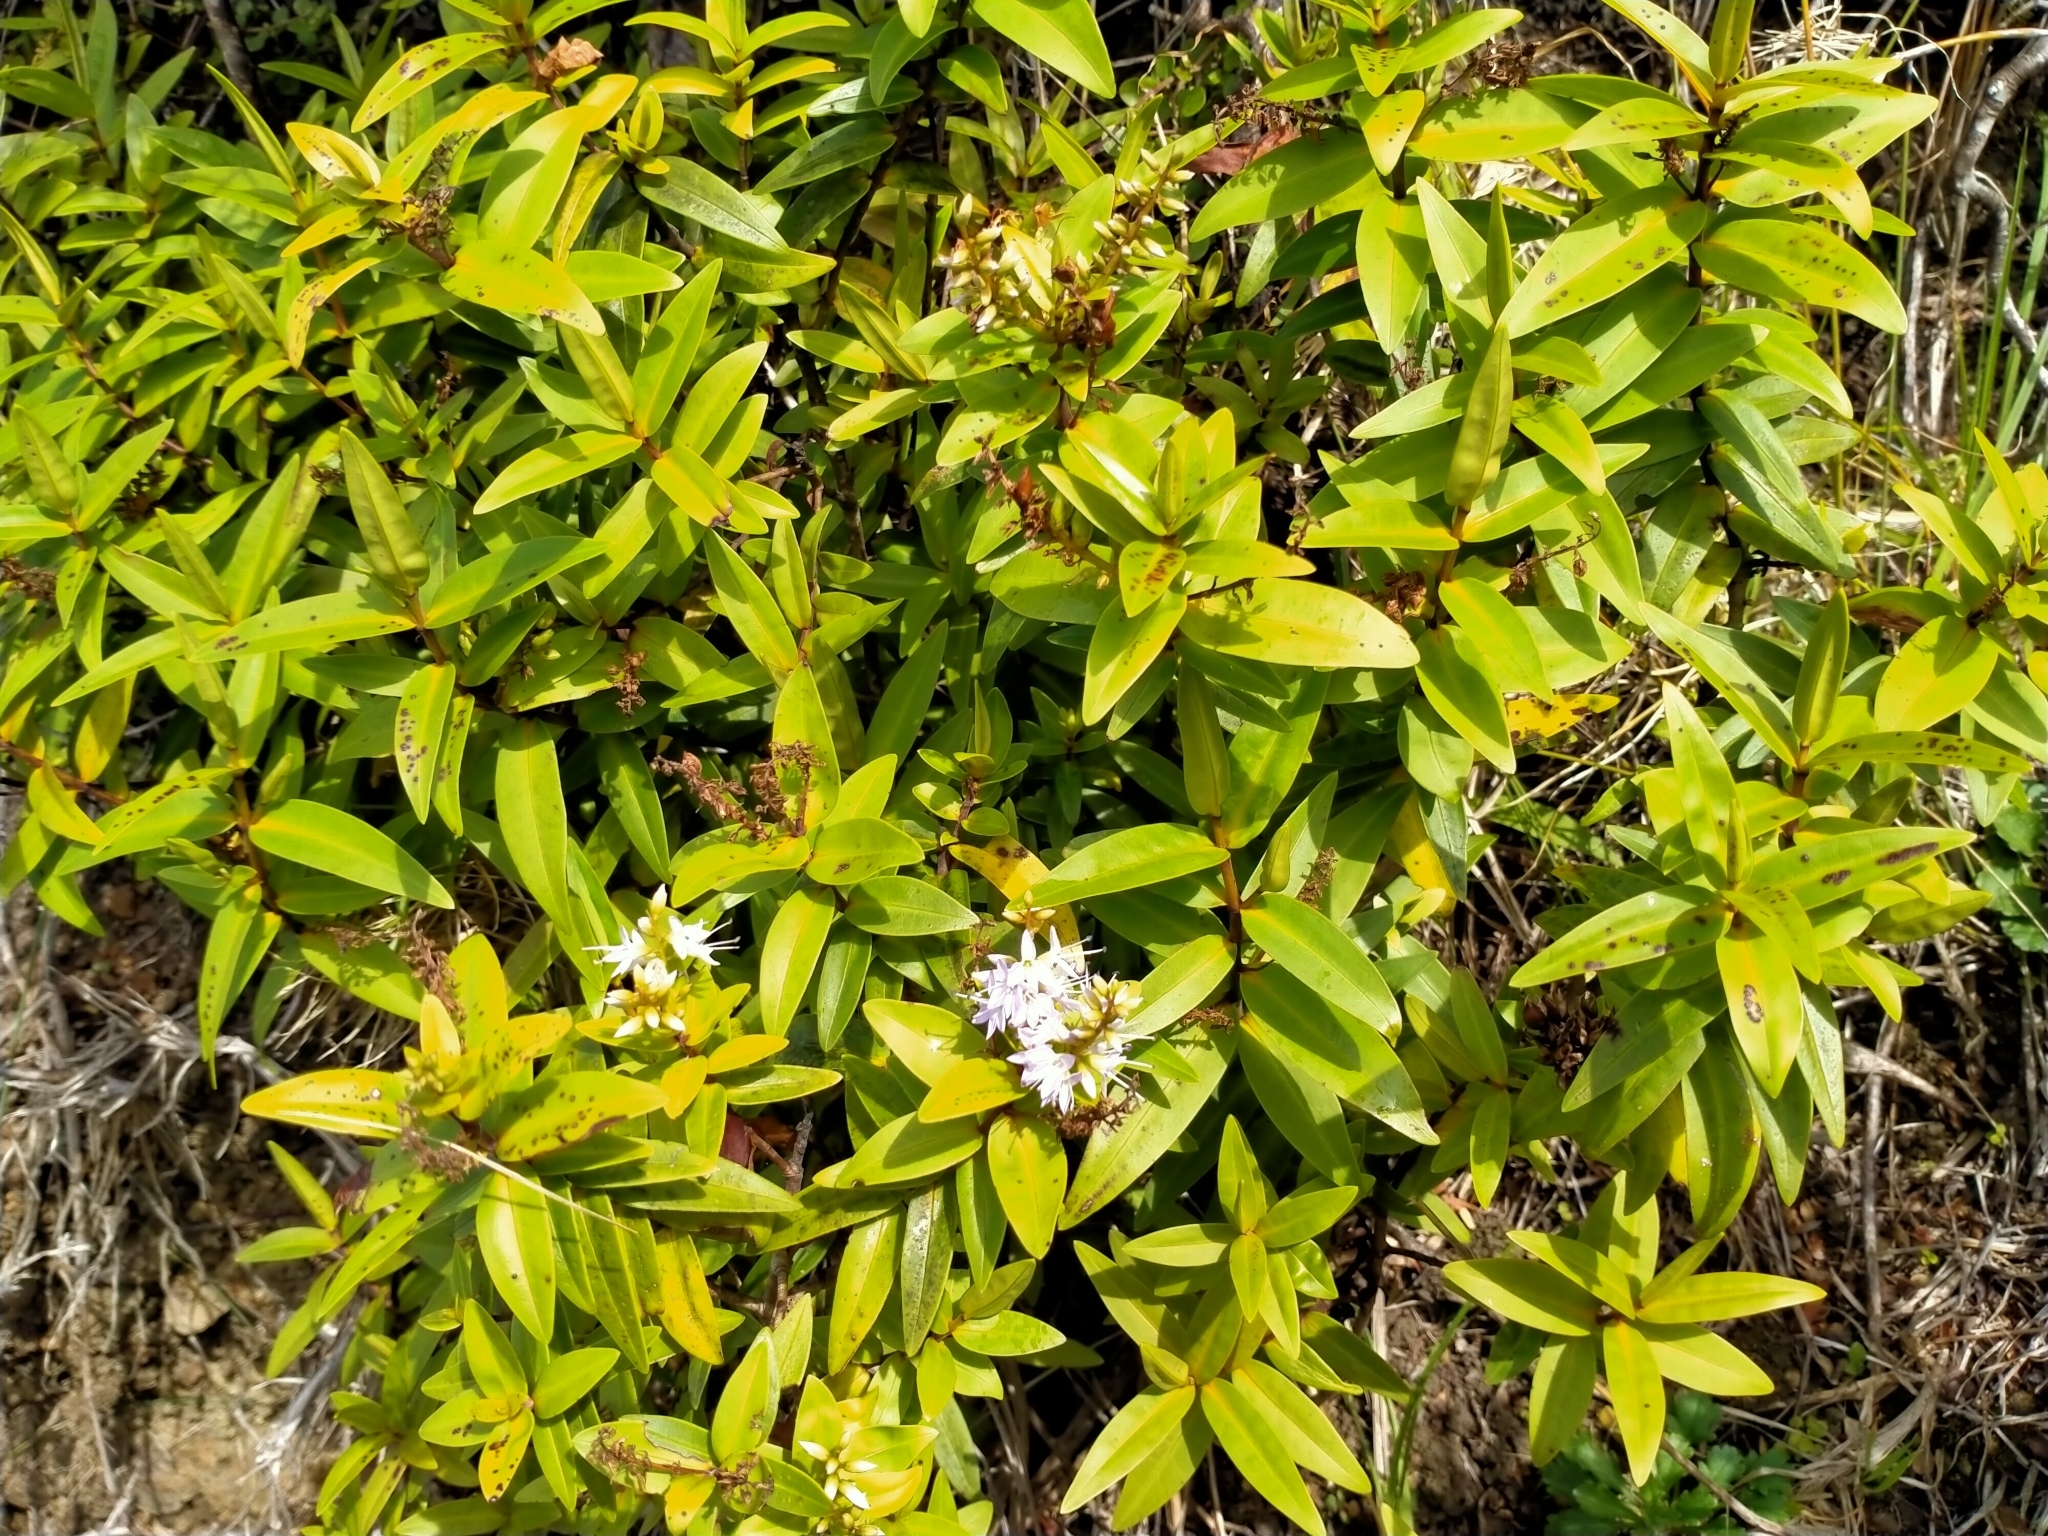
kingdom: Plantae
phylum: Tracheophyta
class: Magnoliopsida
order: Lamiales
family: Plantaginaceae
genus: Veronica
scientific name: Veronica ligustrifolia
